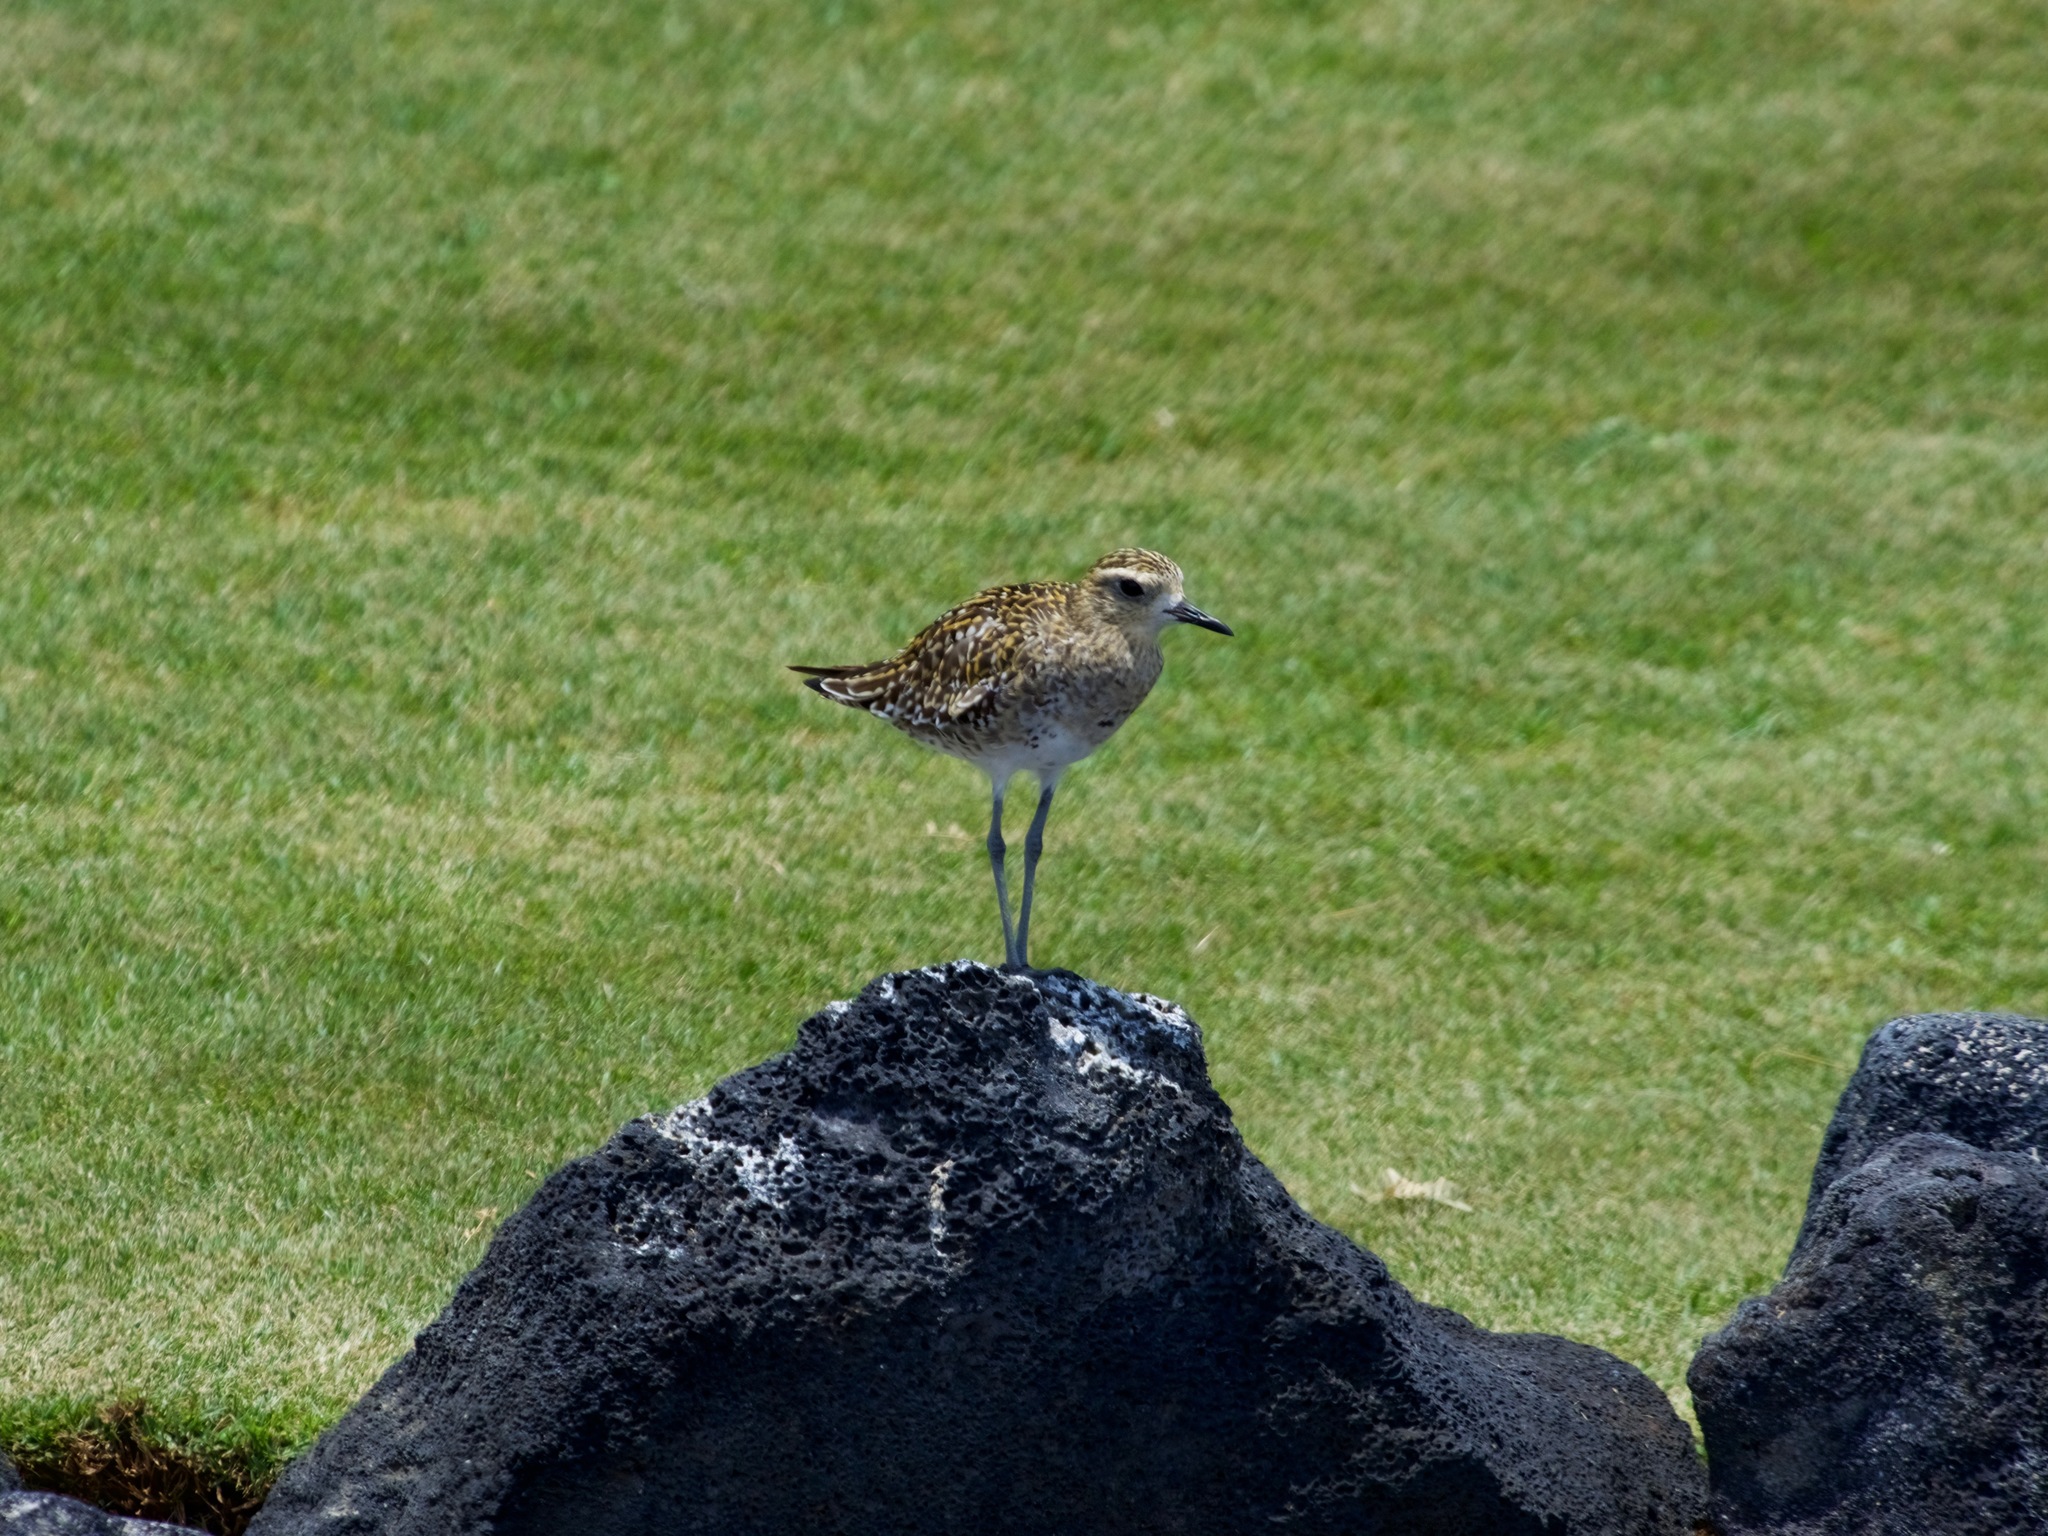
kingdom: Animalia
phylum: Chordata
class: Aves
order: Charadriiformes
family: Charadriidae
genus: Pluvialis
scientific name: Pluvialis fulva
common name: Pacific golden plover
